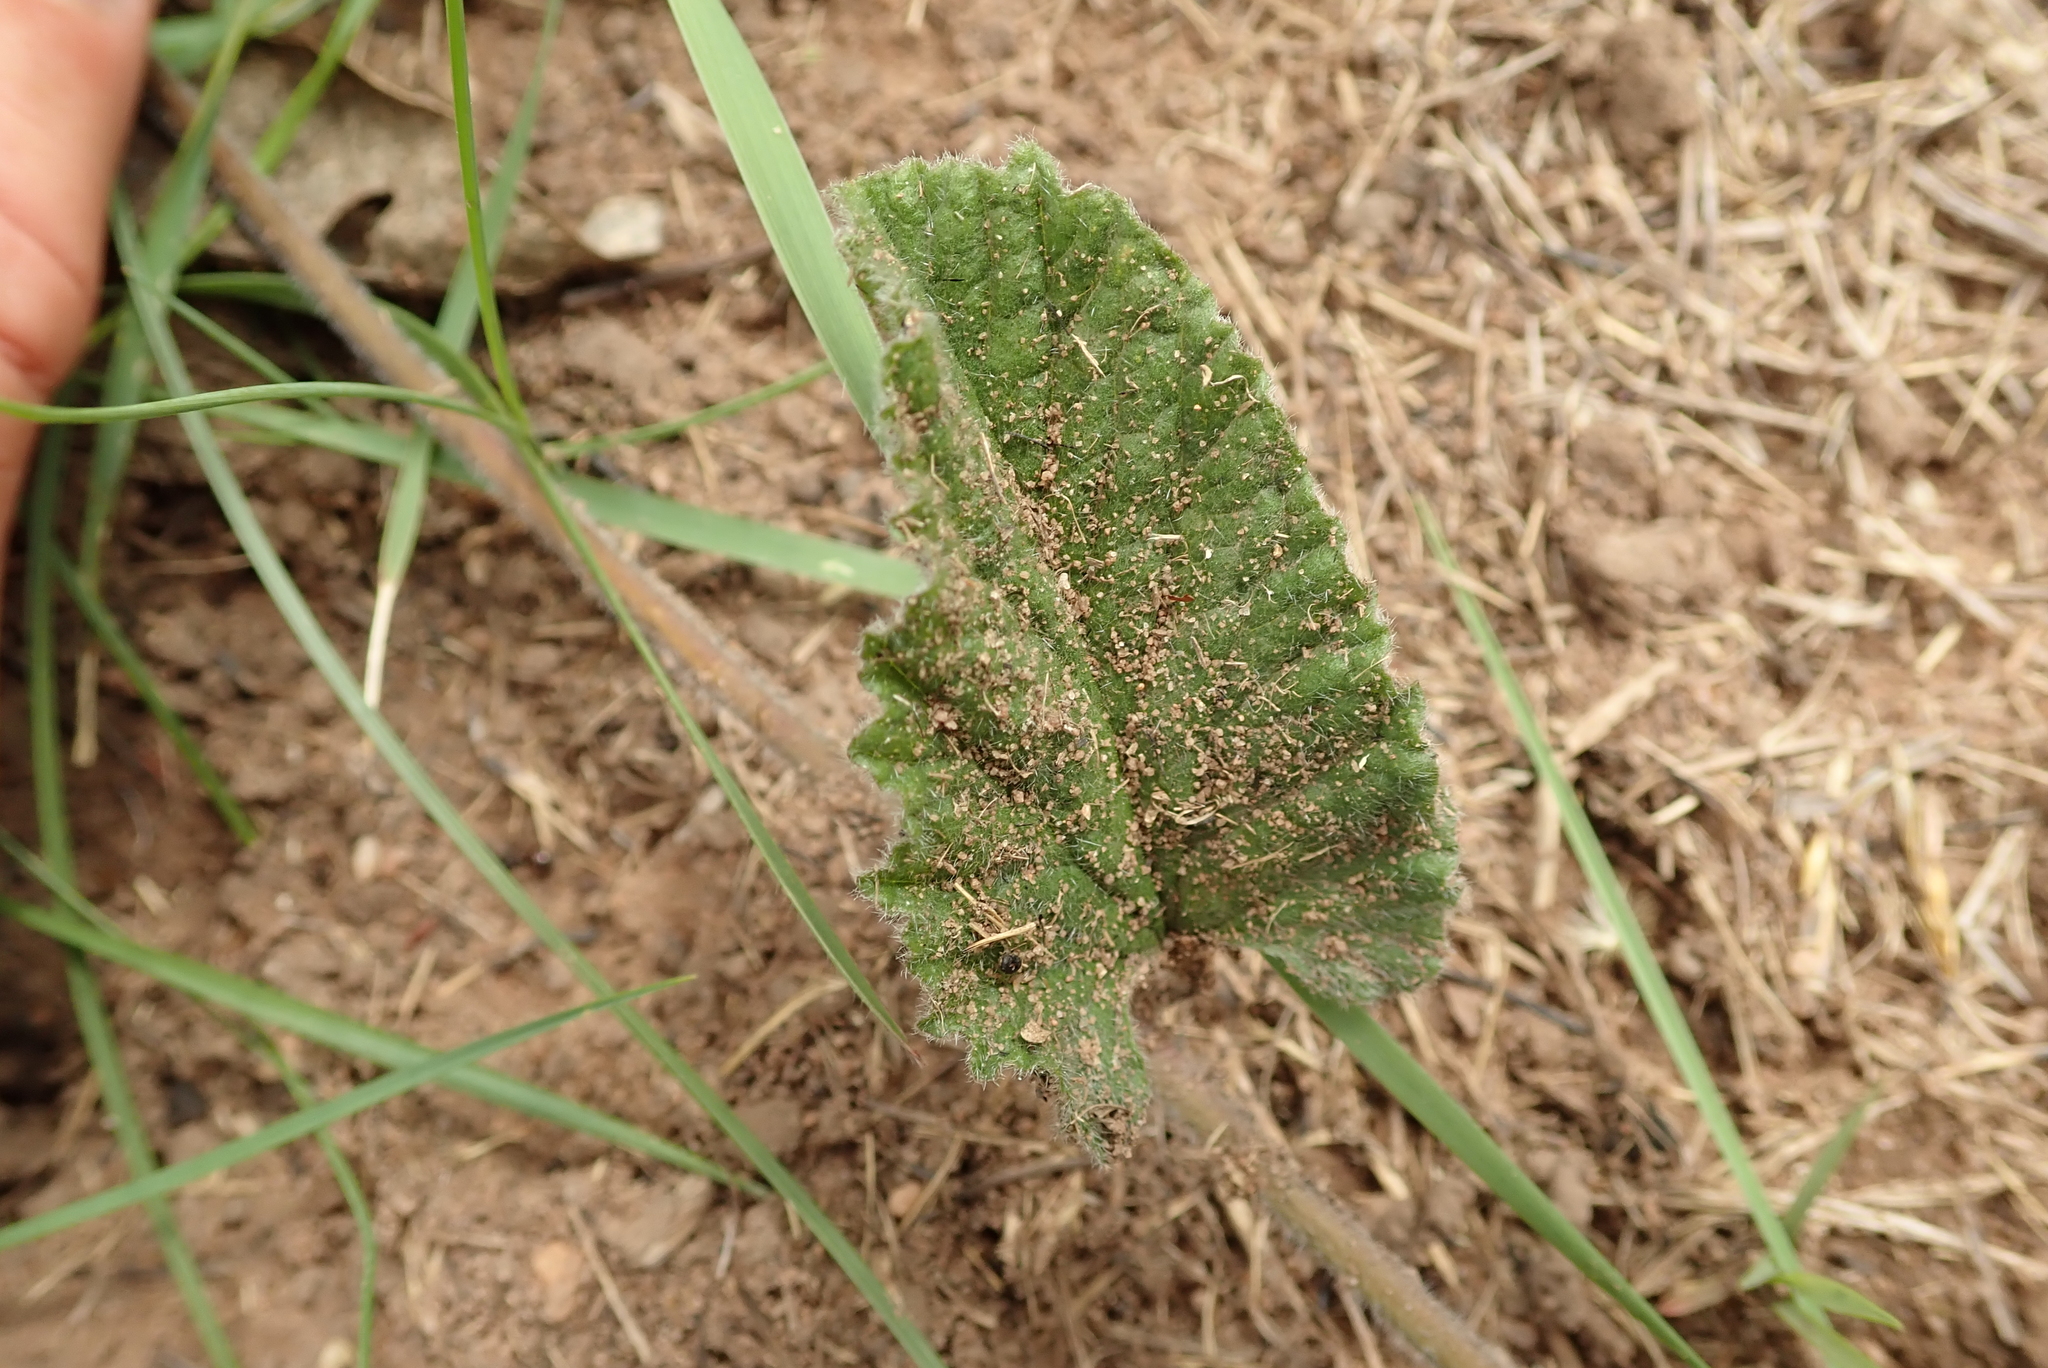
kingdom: Plantae
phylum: Tracheophyta
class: Magnoliopsida
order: Solanales
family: Convolvulaceae
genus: Convolvulus
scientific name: Convolvulus natalensis
